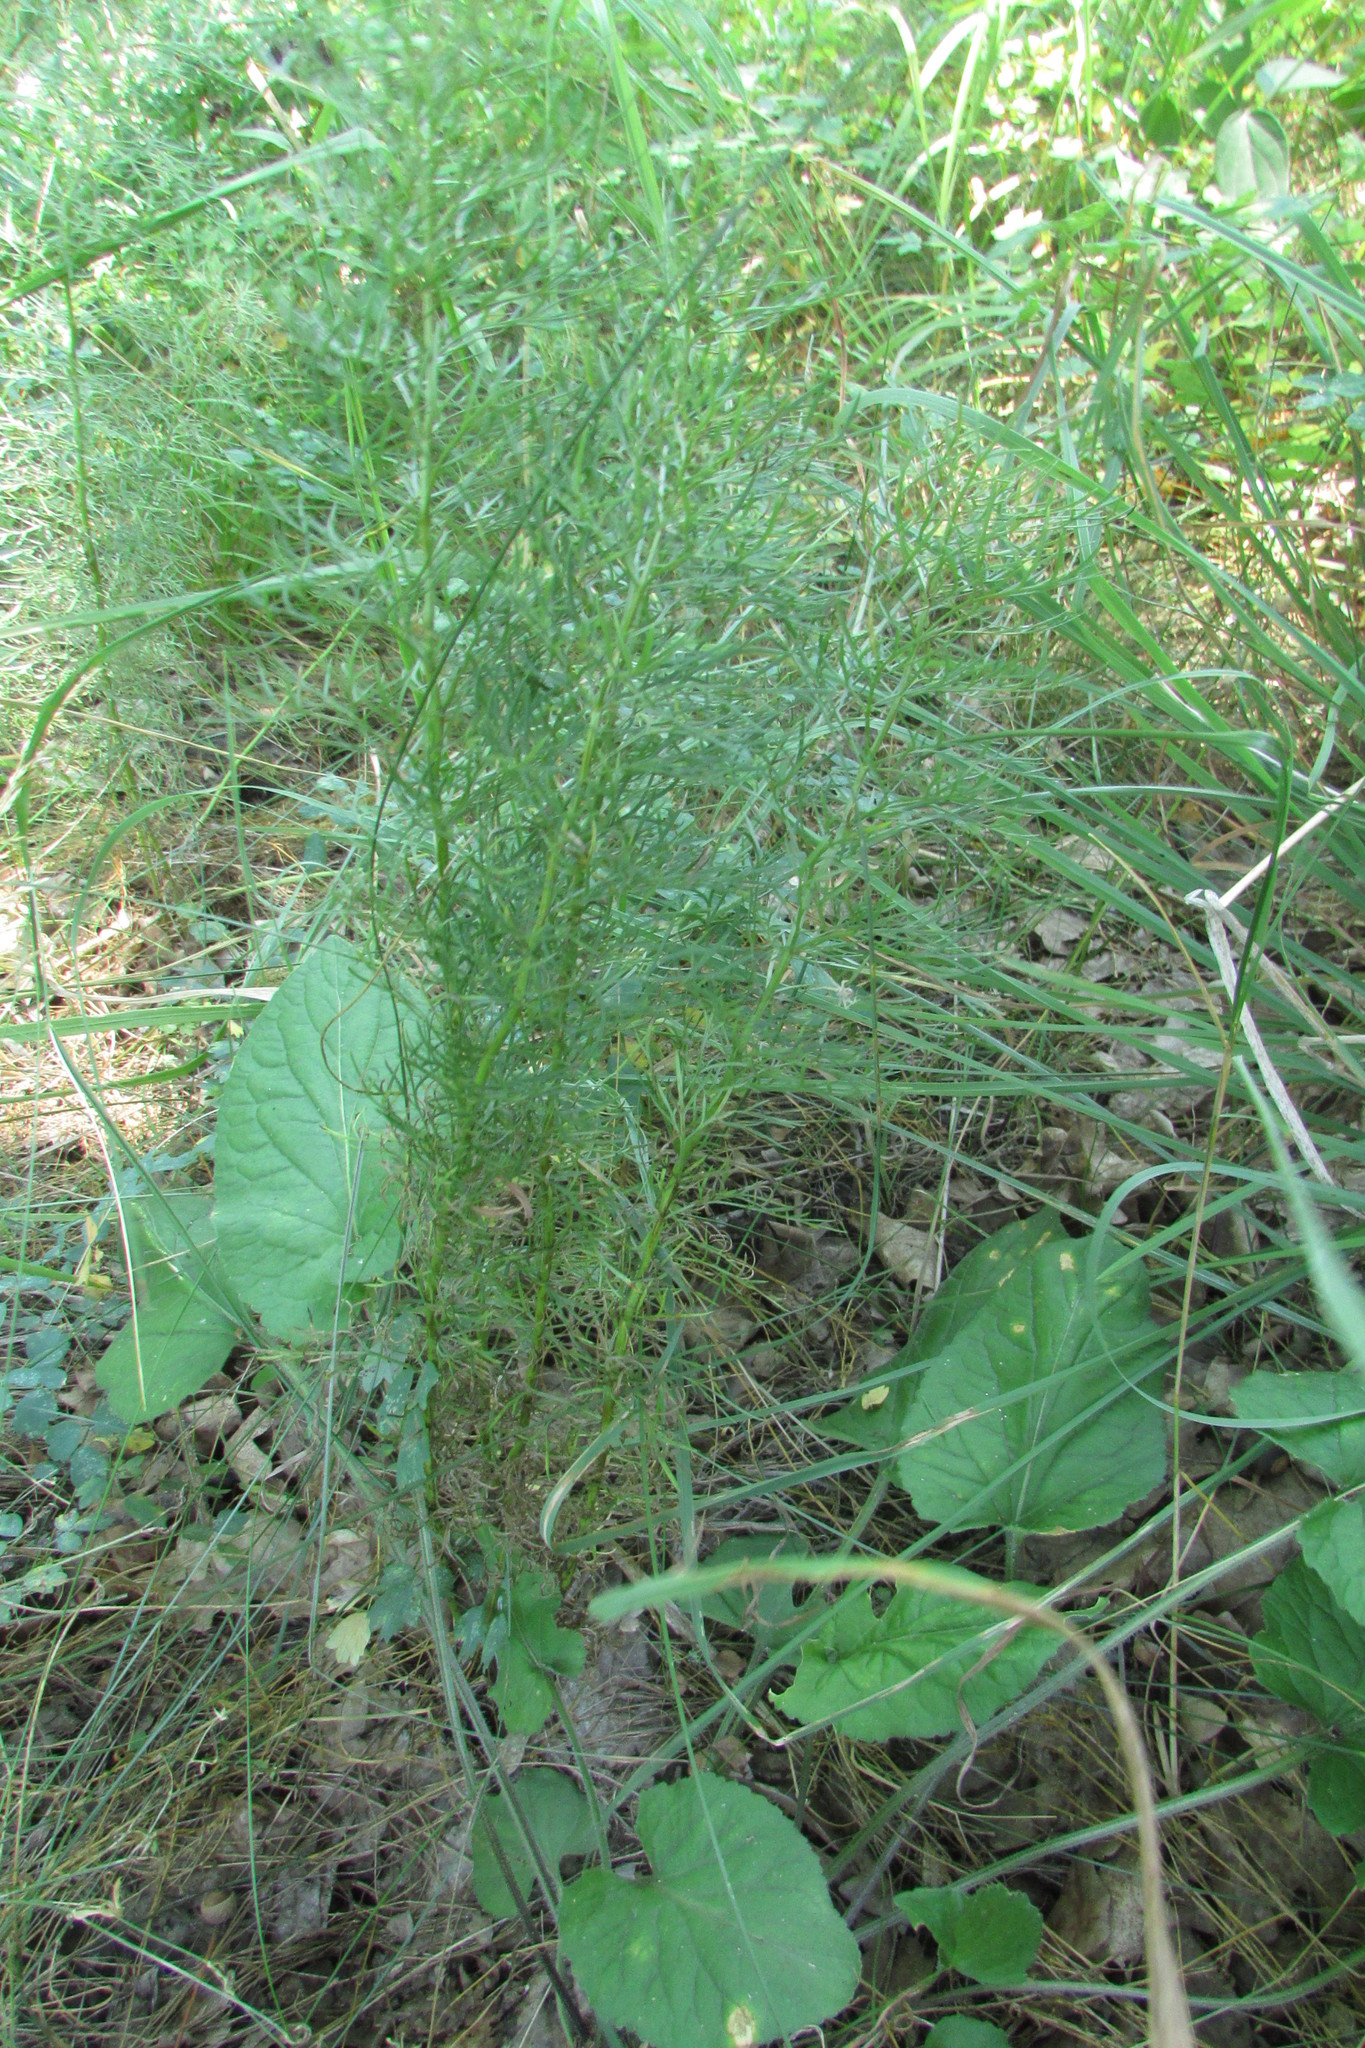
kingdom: Plantae
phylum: Tracheophyta
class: Magnoliopsida
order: Ranunculales
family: Ranunculaceae
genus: Adonis
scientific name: Adonis vernalis
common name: Yellow pheasants-eye
